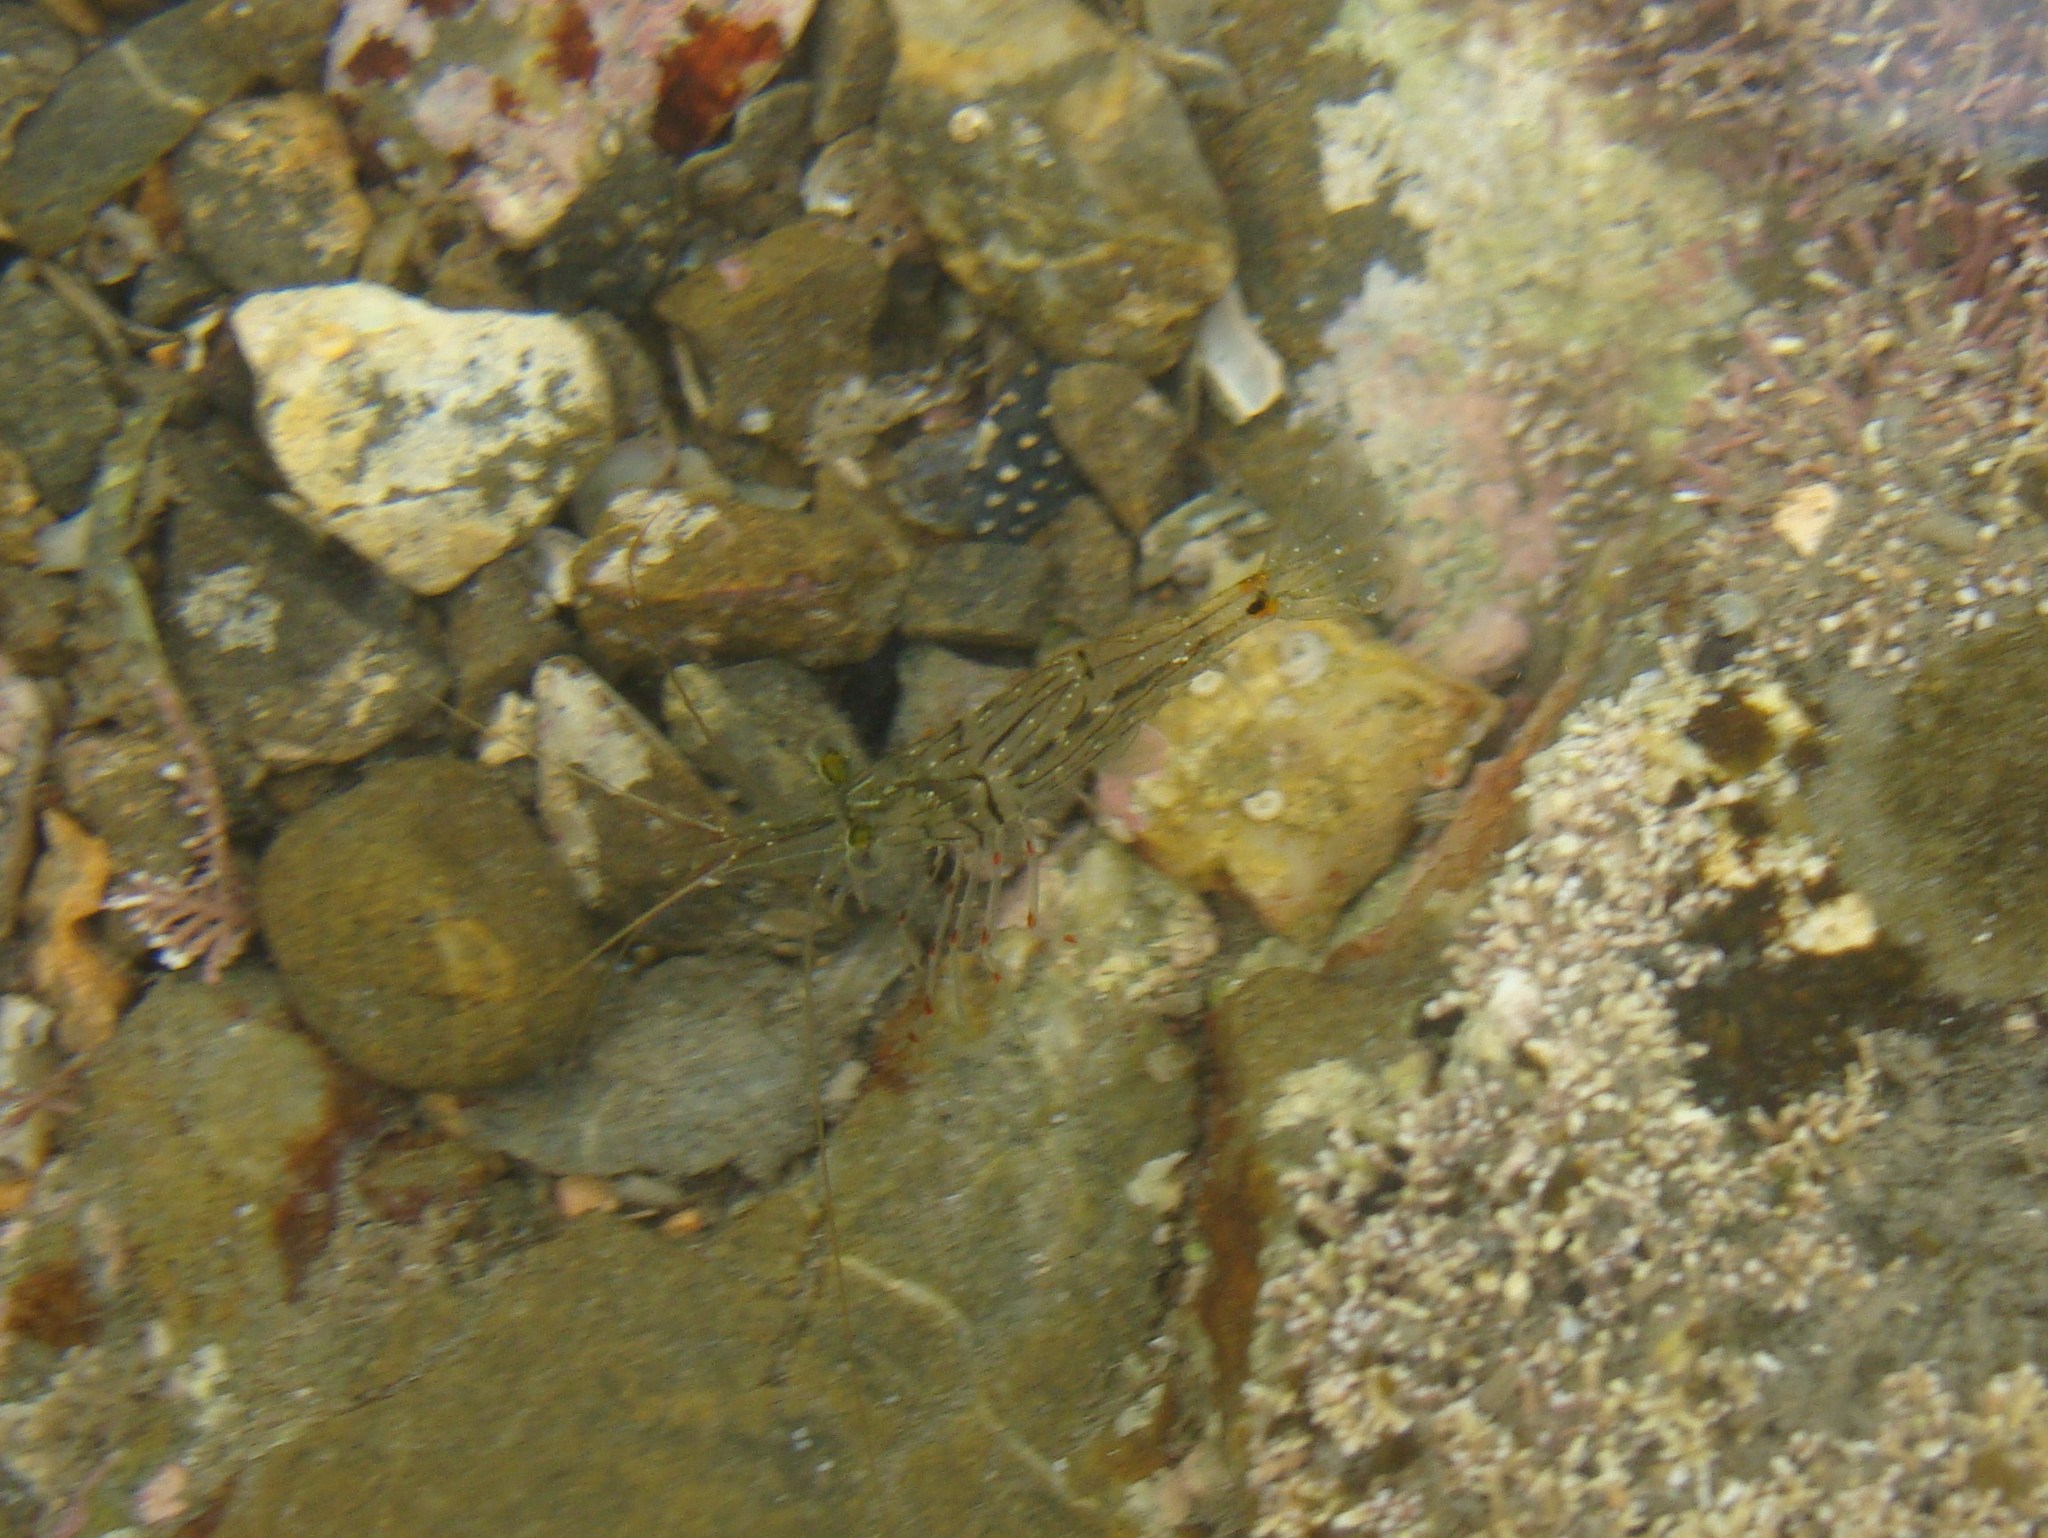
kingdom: Animalia
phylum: Arthropoda
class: Malacostraca
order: Decapoda
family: Palaemonidae
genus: Palaemon
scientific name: Palaemon affinis
